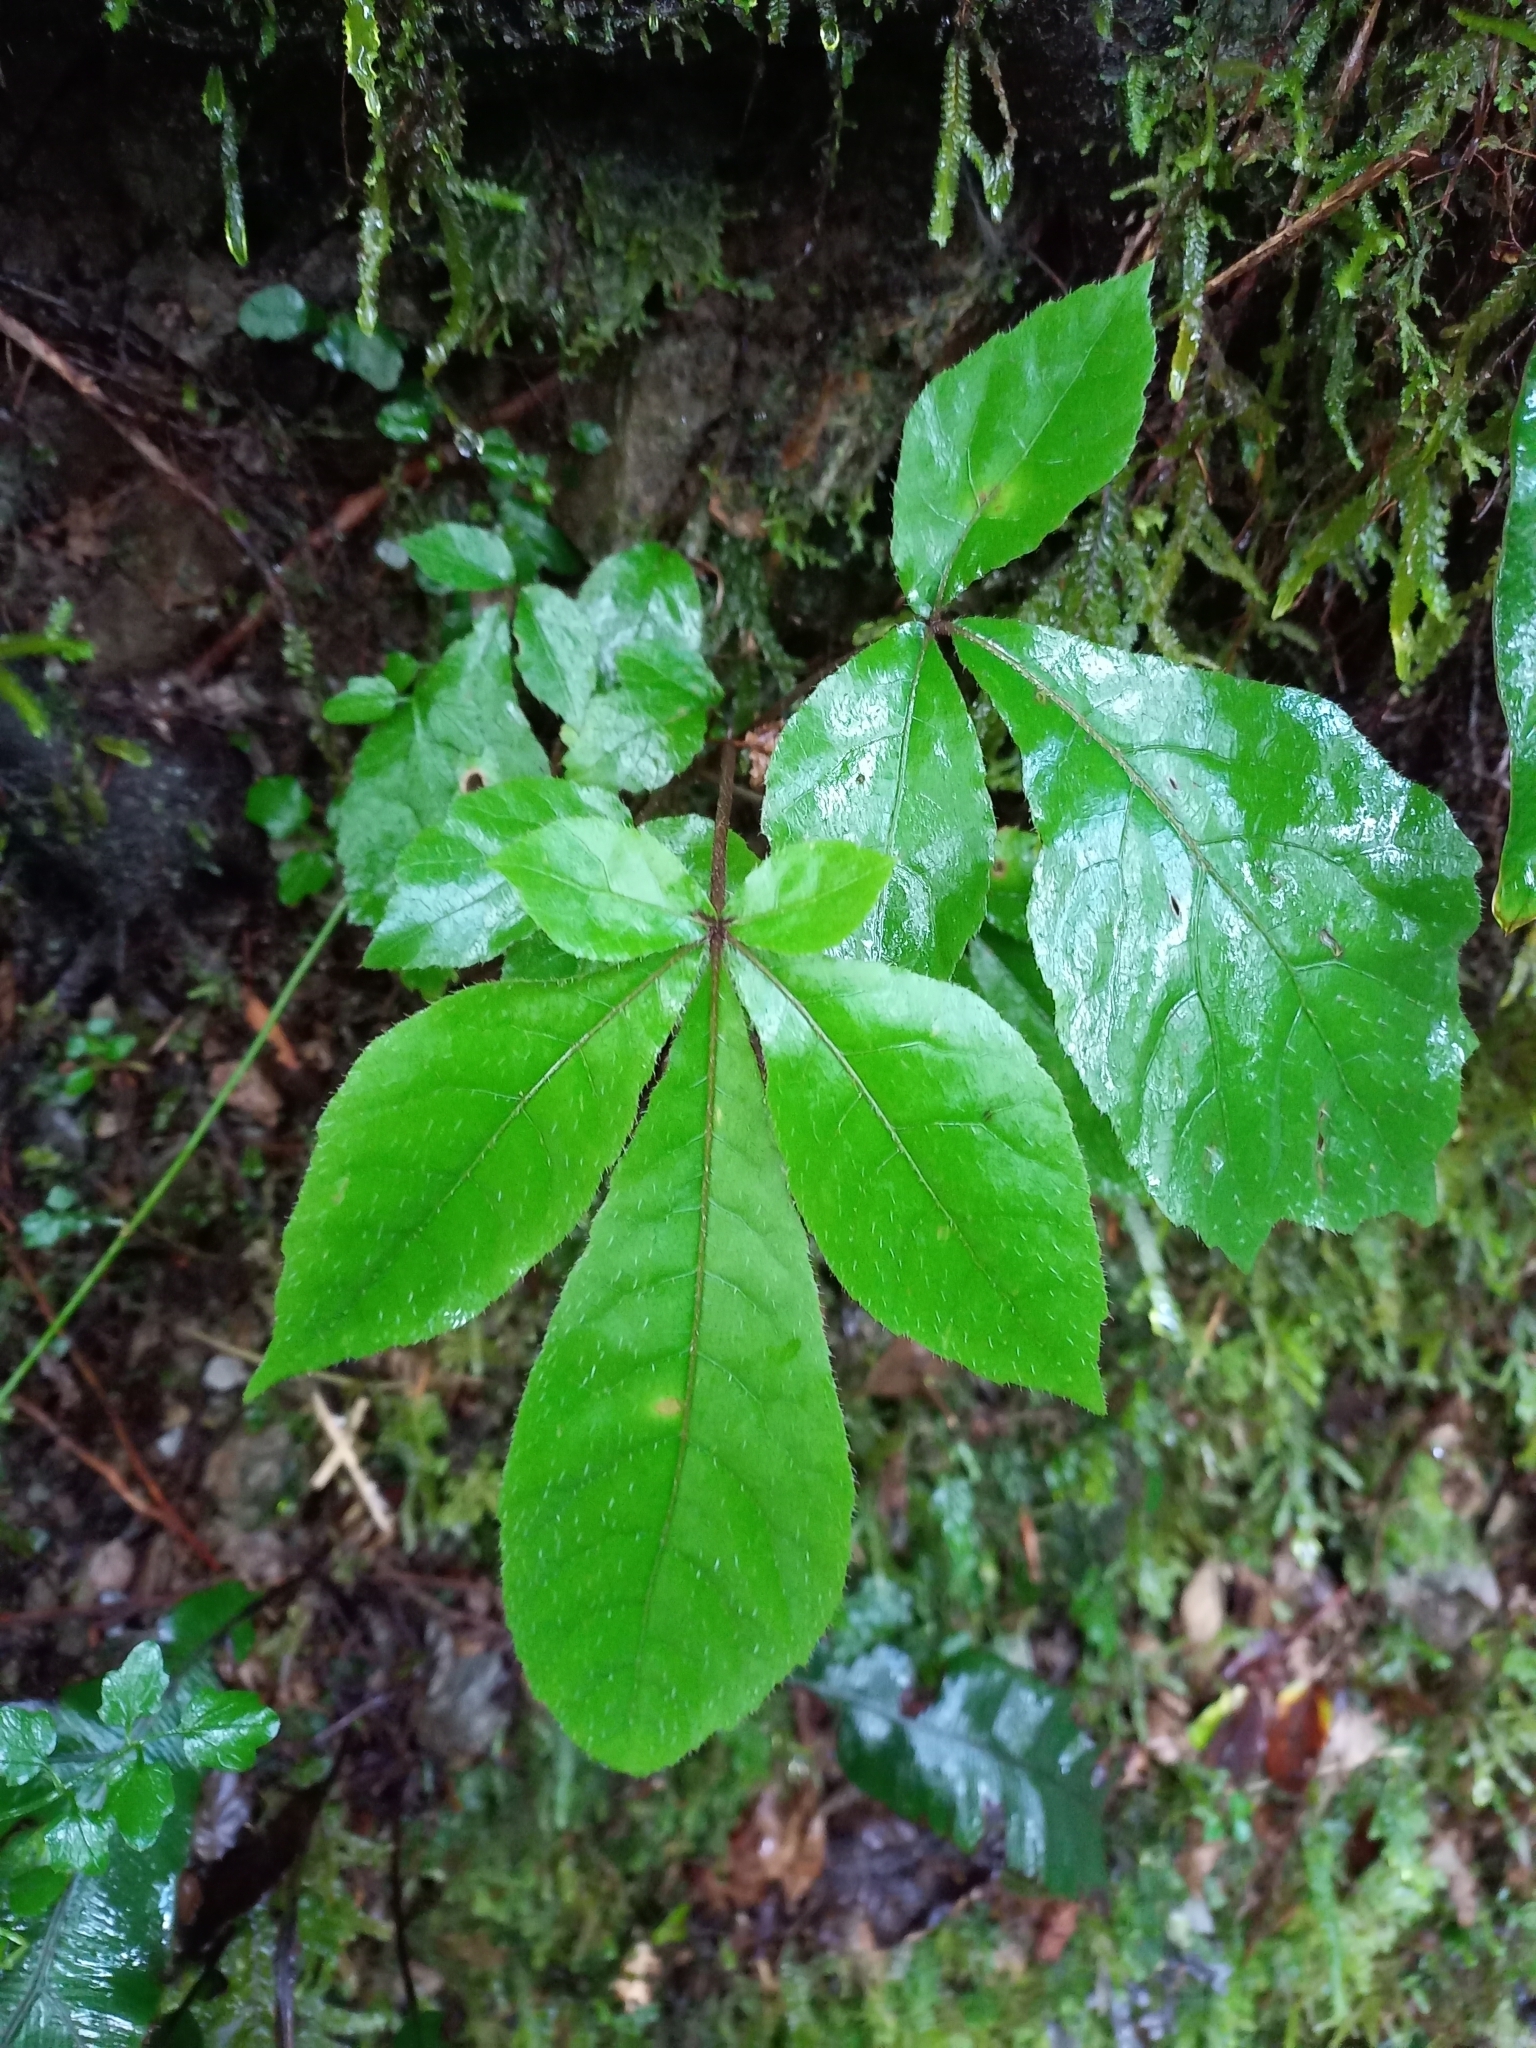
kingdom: Plantae
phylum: Tracheophyta
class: Magnoliopsida
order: Apiales
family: Araliaceae
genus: Schefflera
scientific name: Schefflera digitata
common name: Pate
